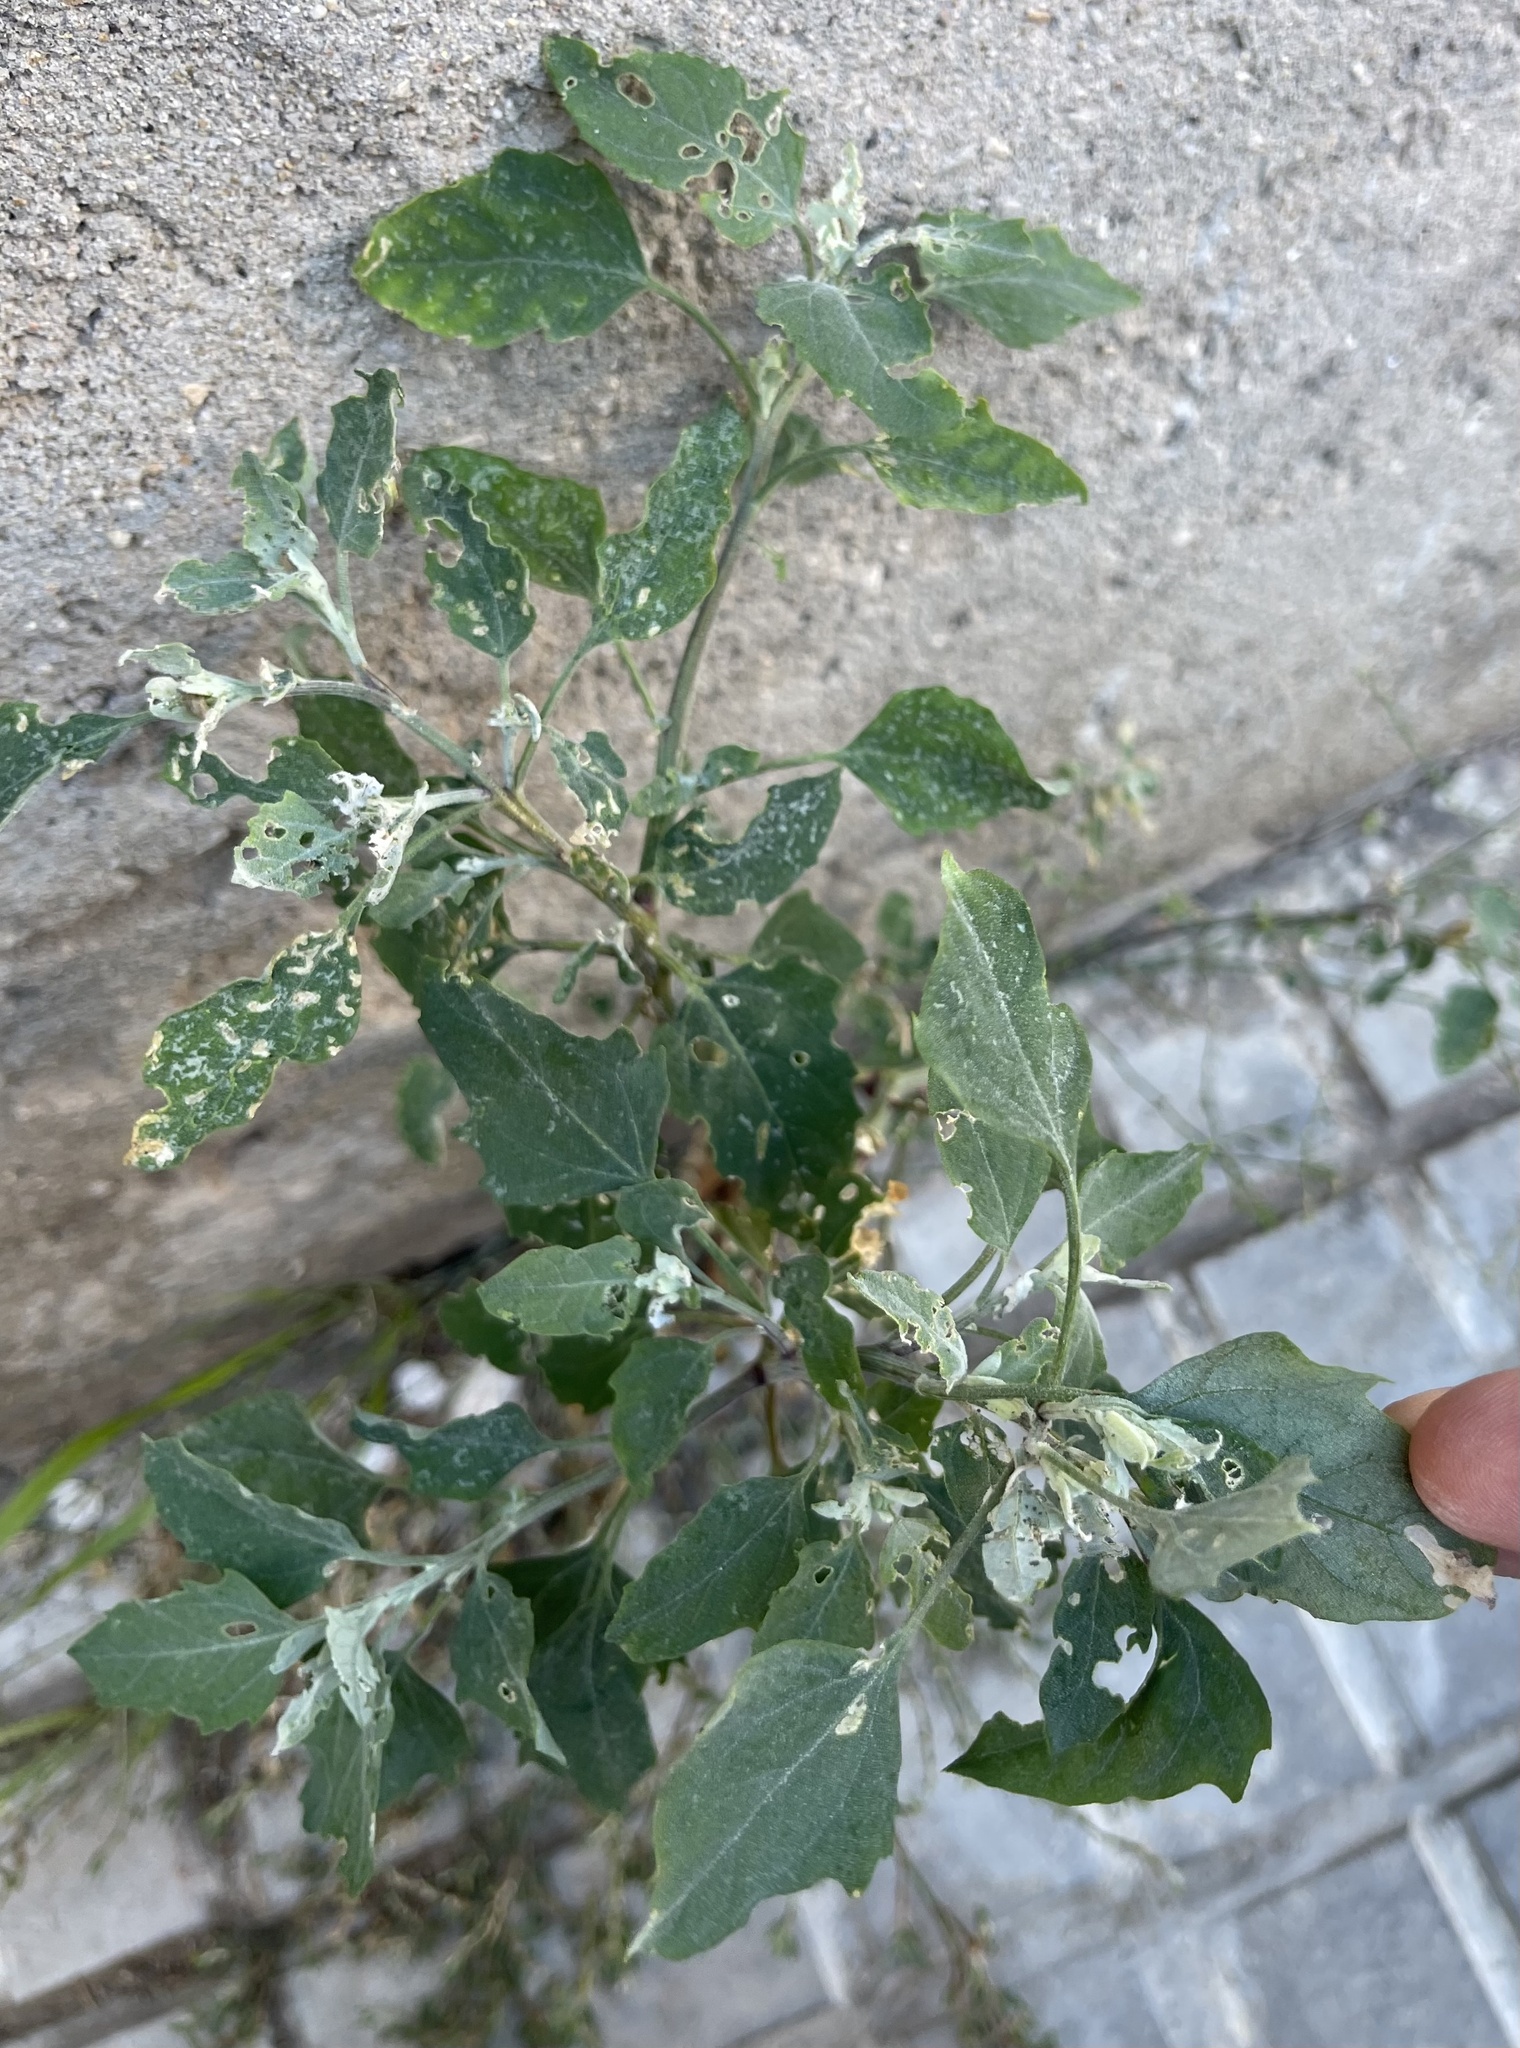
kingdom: Plantae
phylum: Tracheophyta
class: Magnoliopsida
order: Caryophyllales
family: Amaranthaceae
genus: Chenopodium
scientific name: Chenopodium album
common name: Fat-hen
